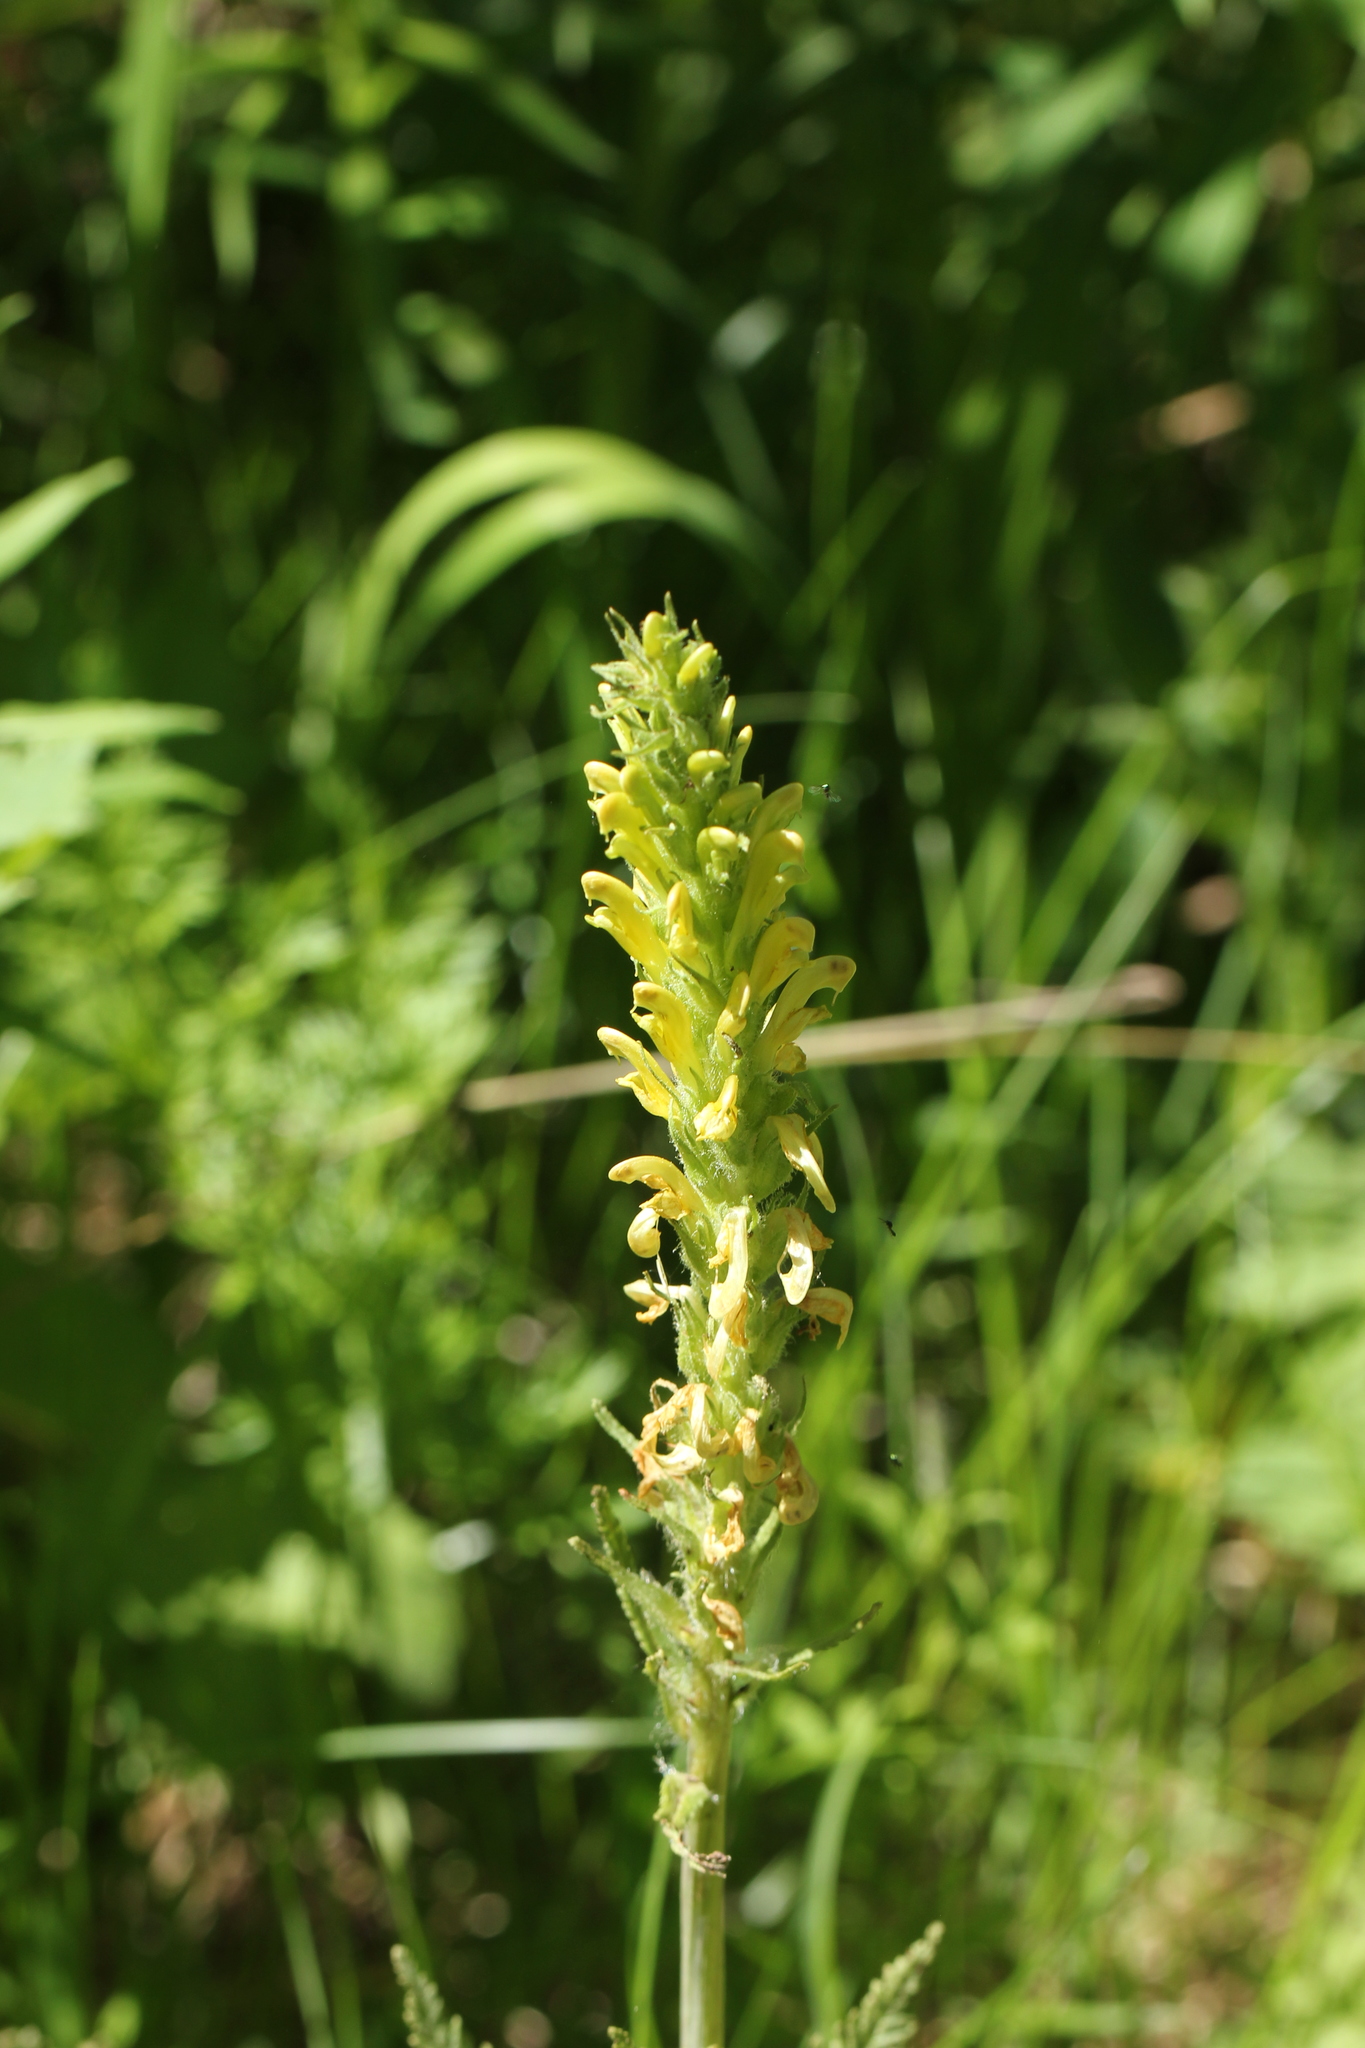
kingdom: Plantae
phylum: Tracheophyta
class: Magnoliopsida
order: Lamiales
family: Orobanchaceae
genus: Pedicularis
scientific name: Pedicularis bracteosa
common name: Bracted lousewort
